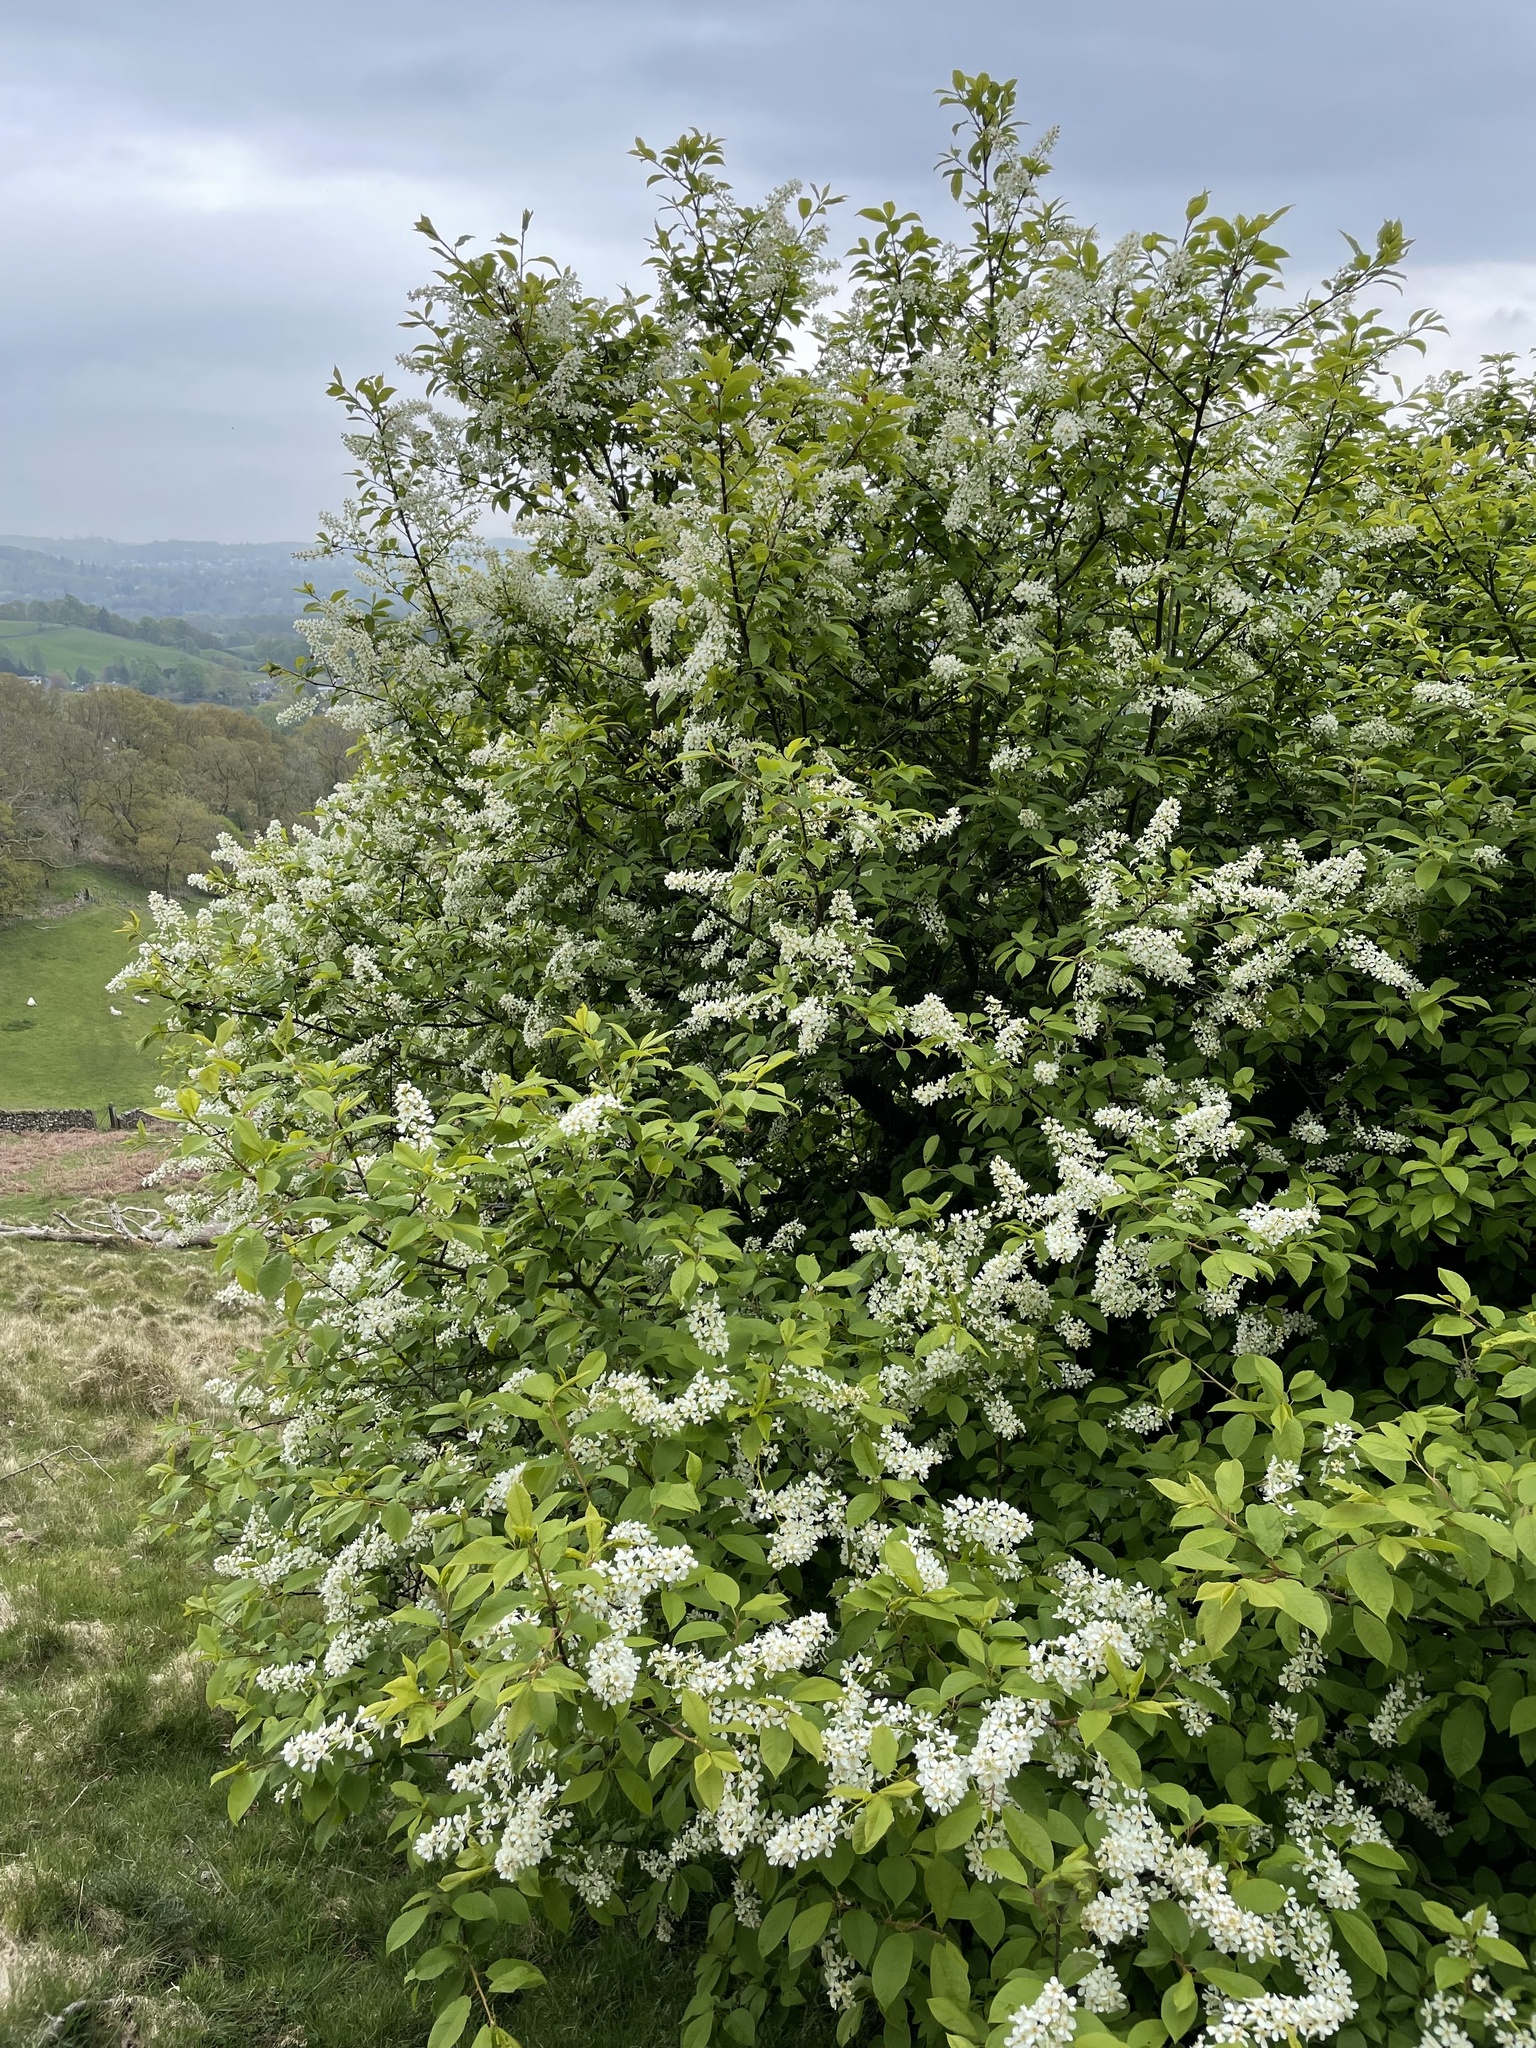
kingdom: Plantae
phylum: Tracheophyta
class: Magnoliopsida
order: Rosales
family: Rosaceae
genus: Prunus
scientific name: Prunus padus
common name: Bird cherry
